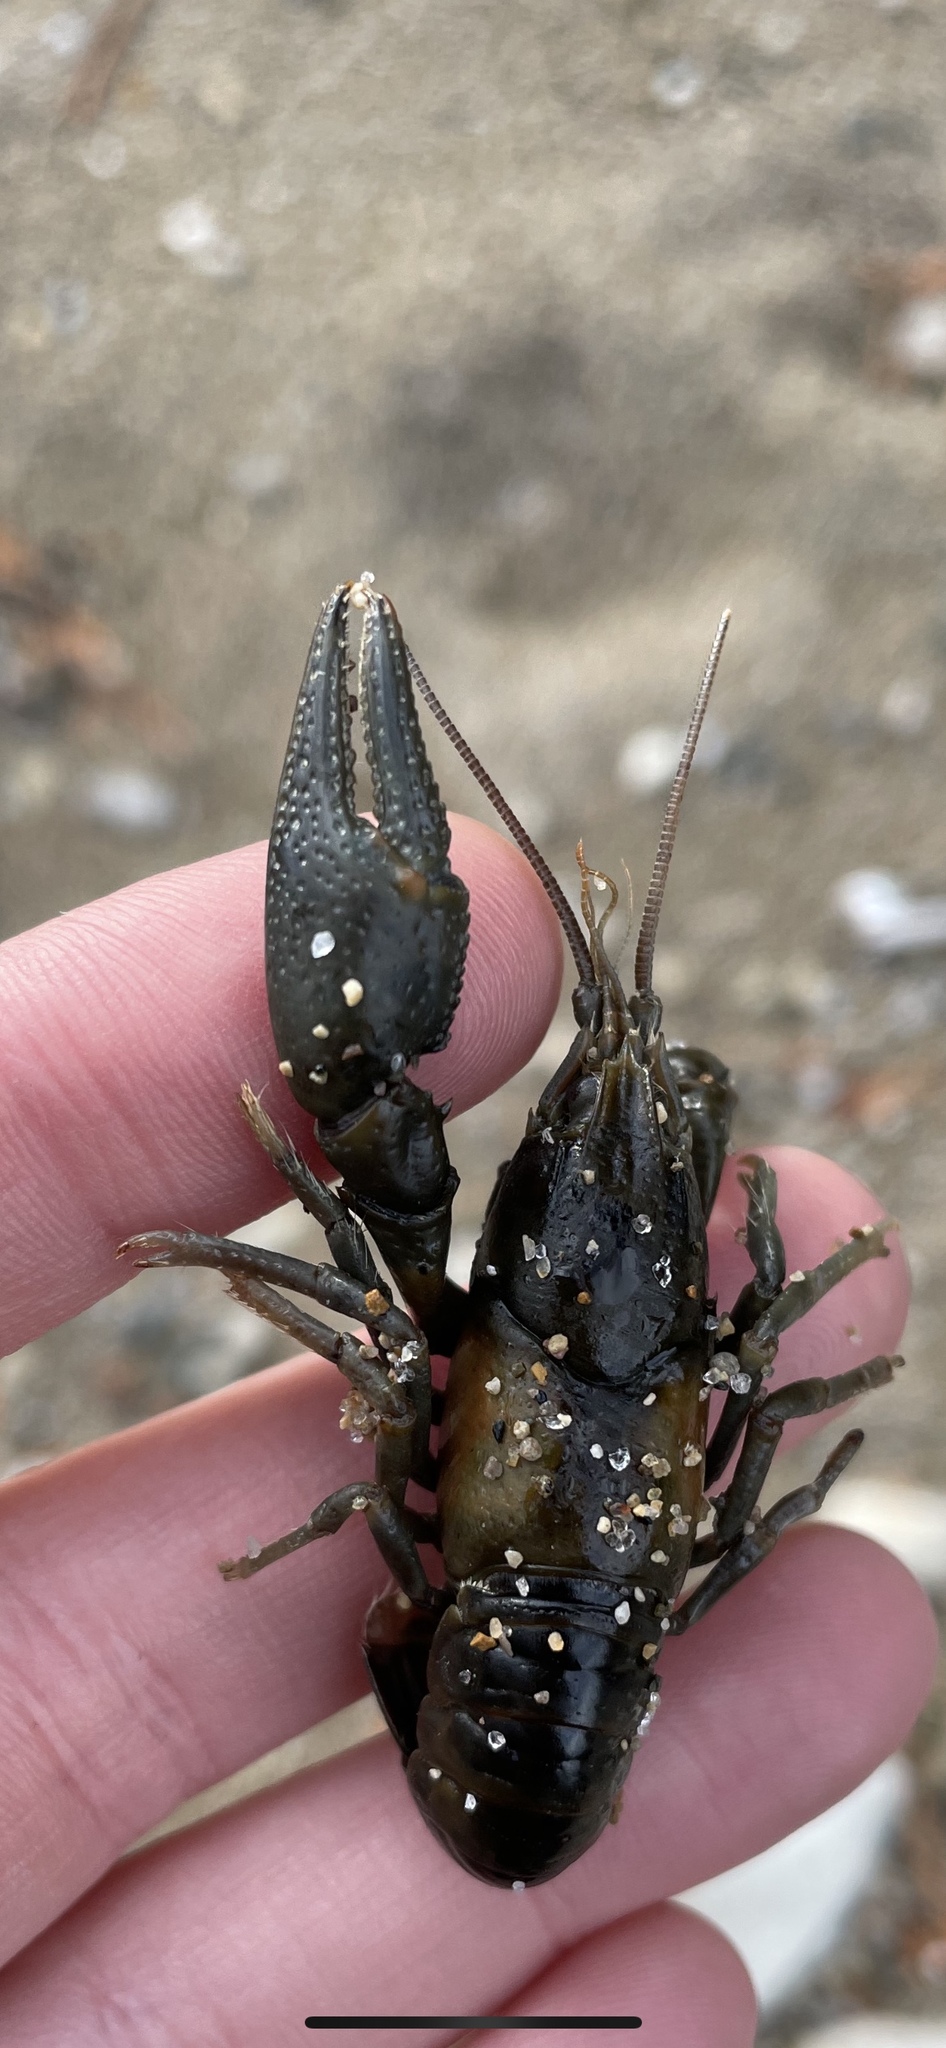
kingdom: Animalia
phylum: Arthropoda
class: Malacostraca
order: Decapoda
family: Cambaridae
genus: Faxonius
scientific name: Faxonius propinquus
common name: Northern clearwater crayfish
